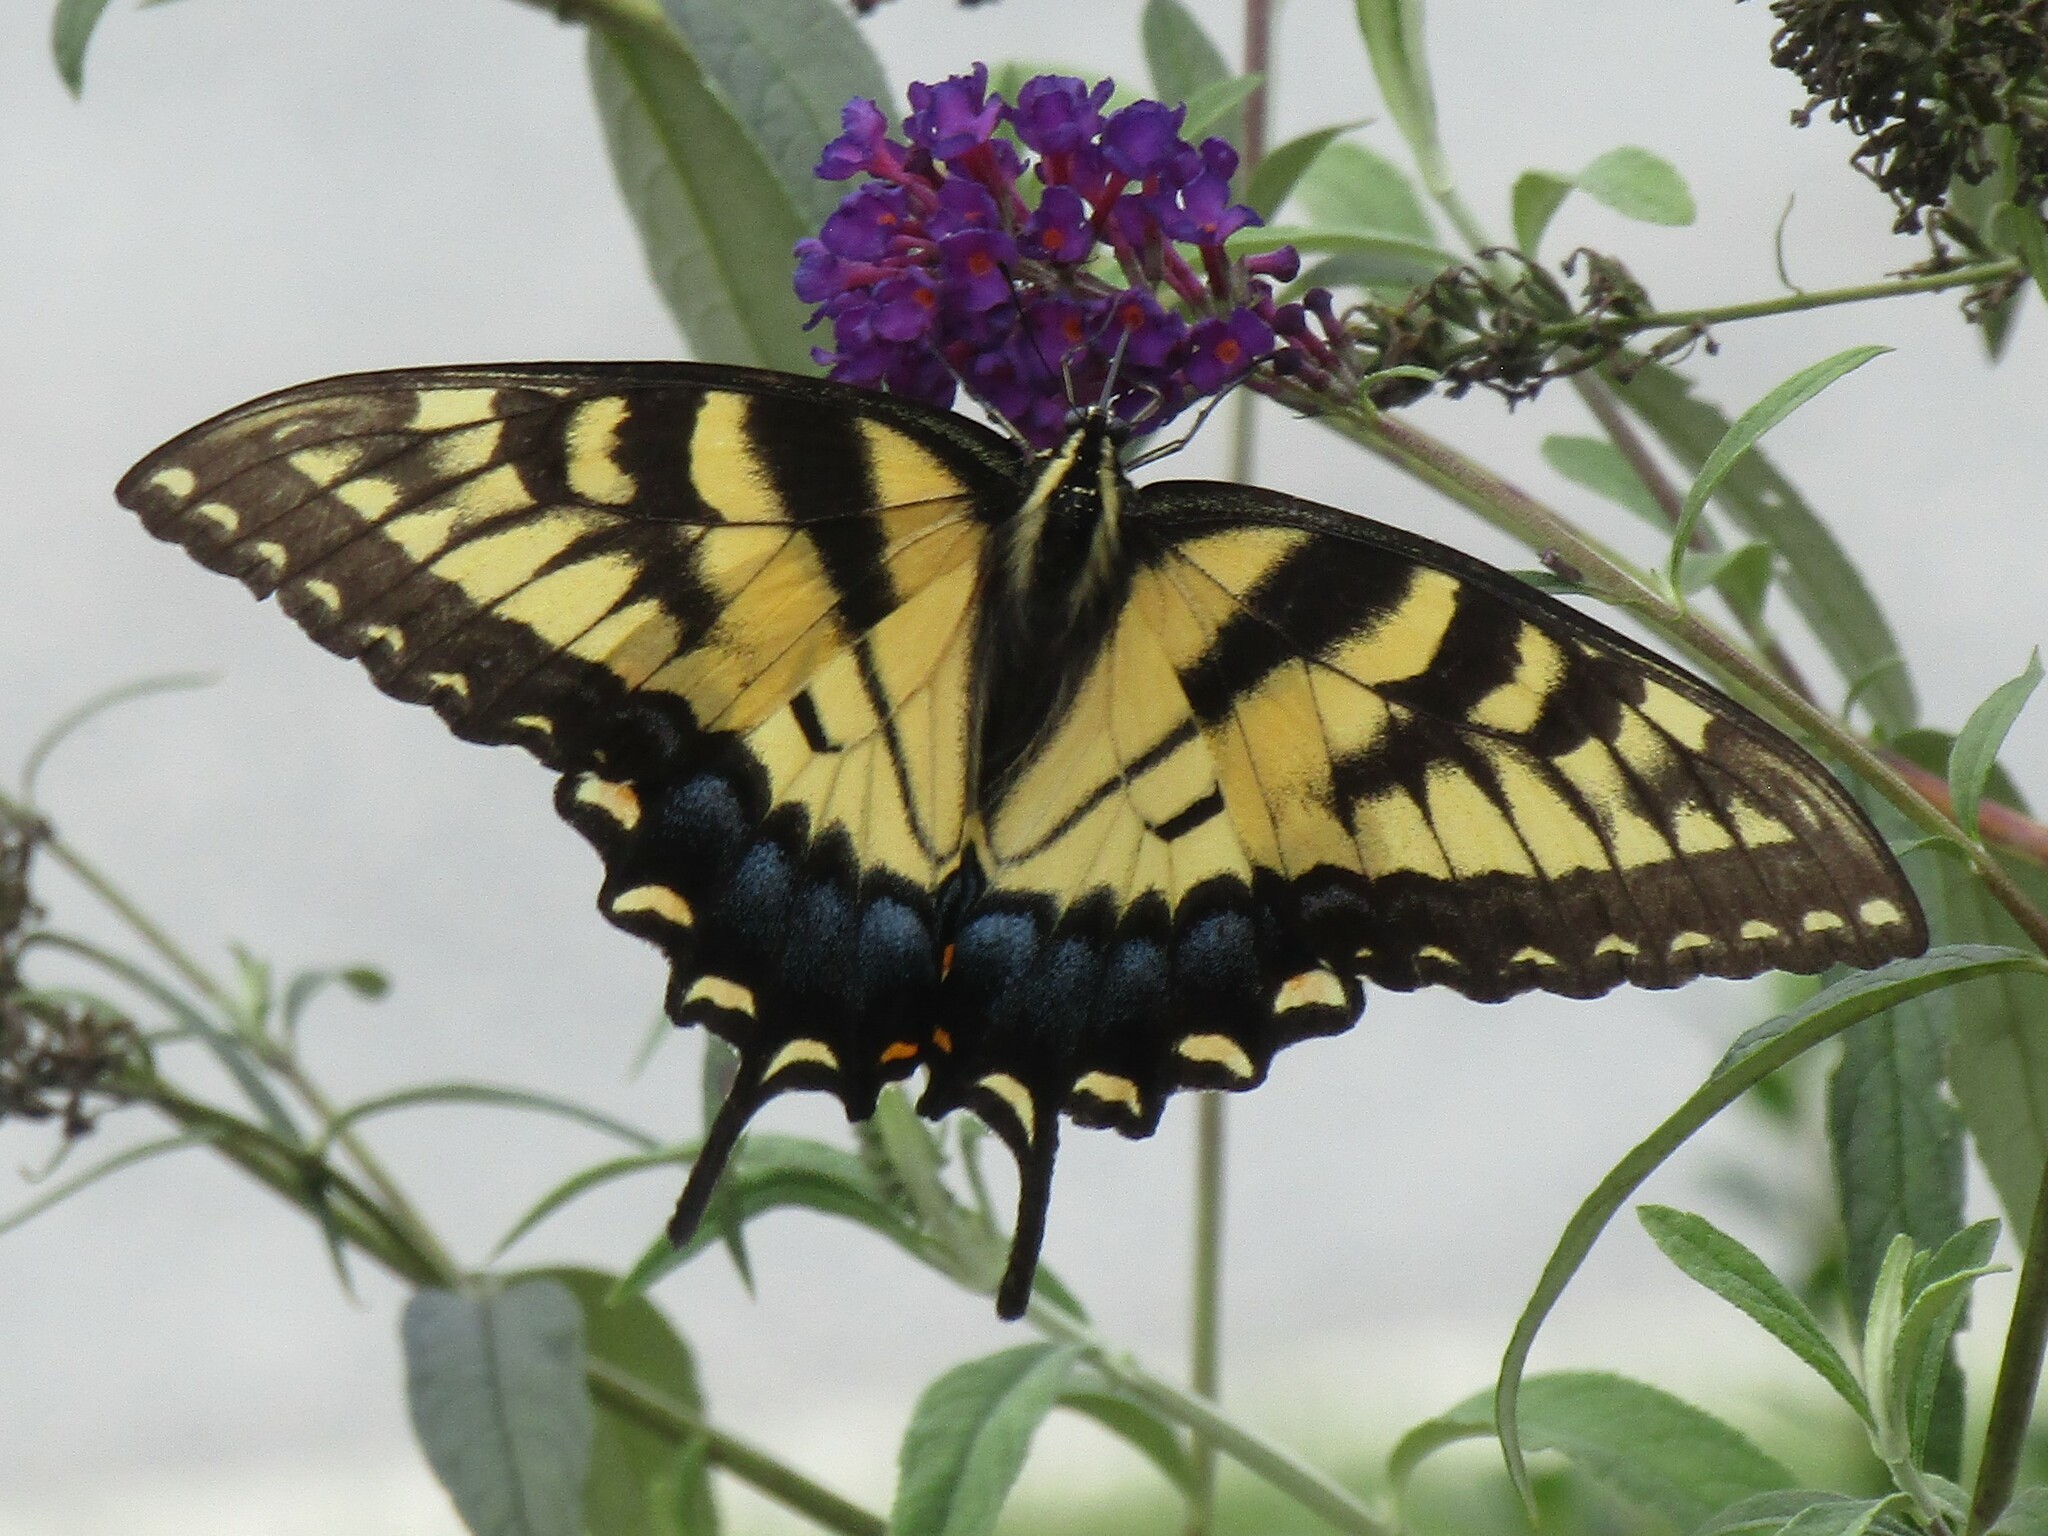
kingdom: Animalia
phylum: Arthropoda
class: Insecta
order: Lepidoptera
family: Papilionidae
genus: Papilio
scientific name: Papilio glaucus
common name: Tiger swallowtail
